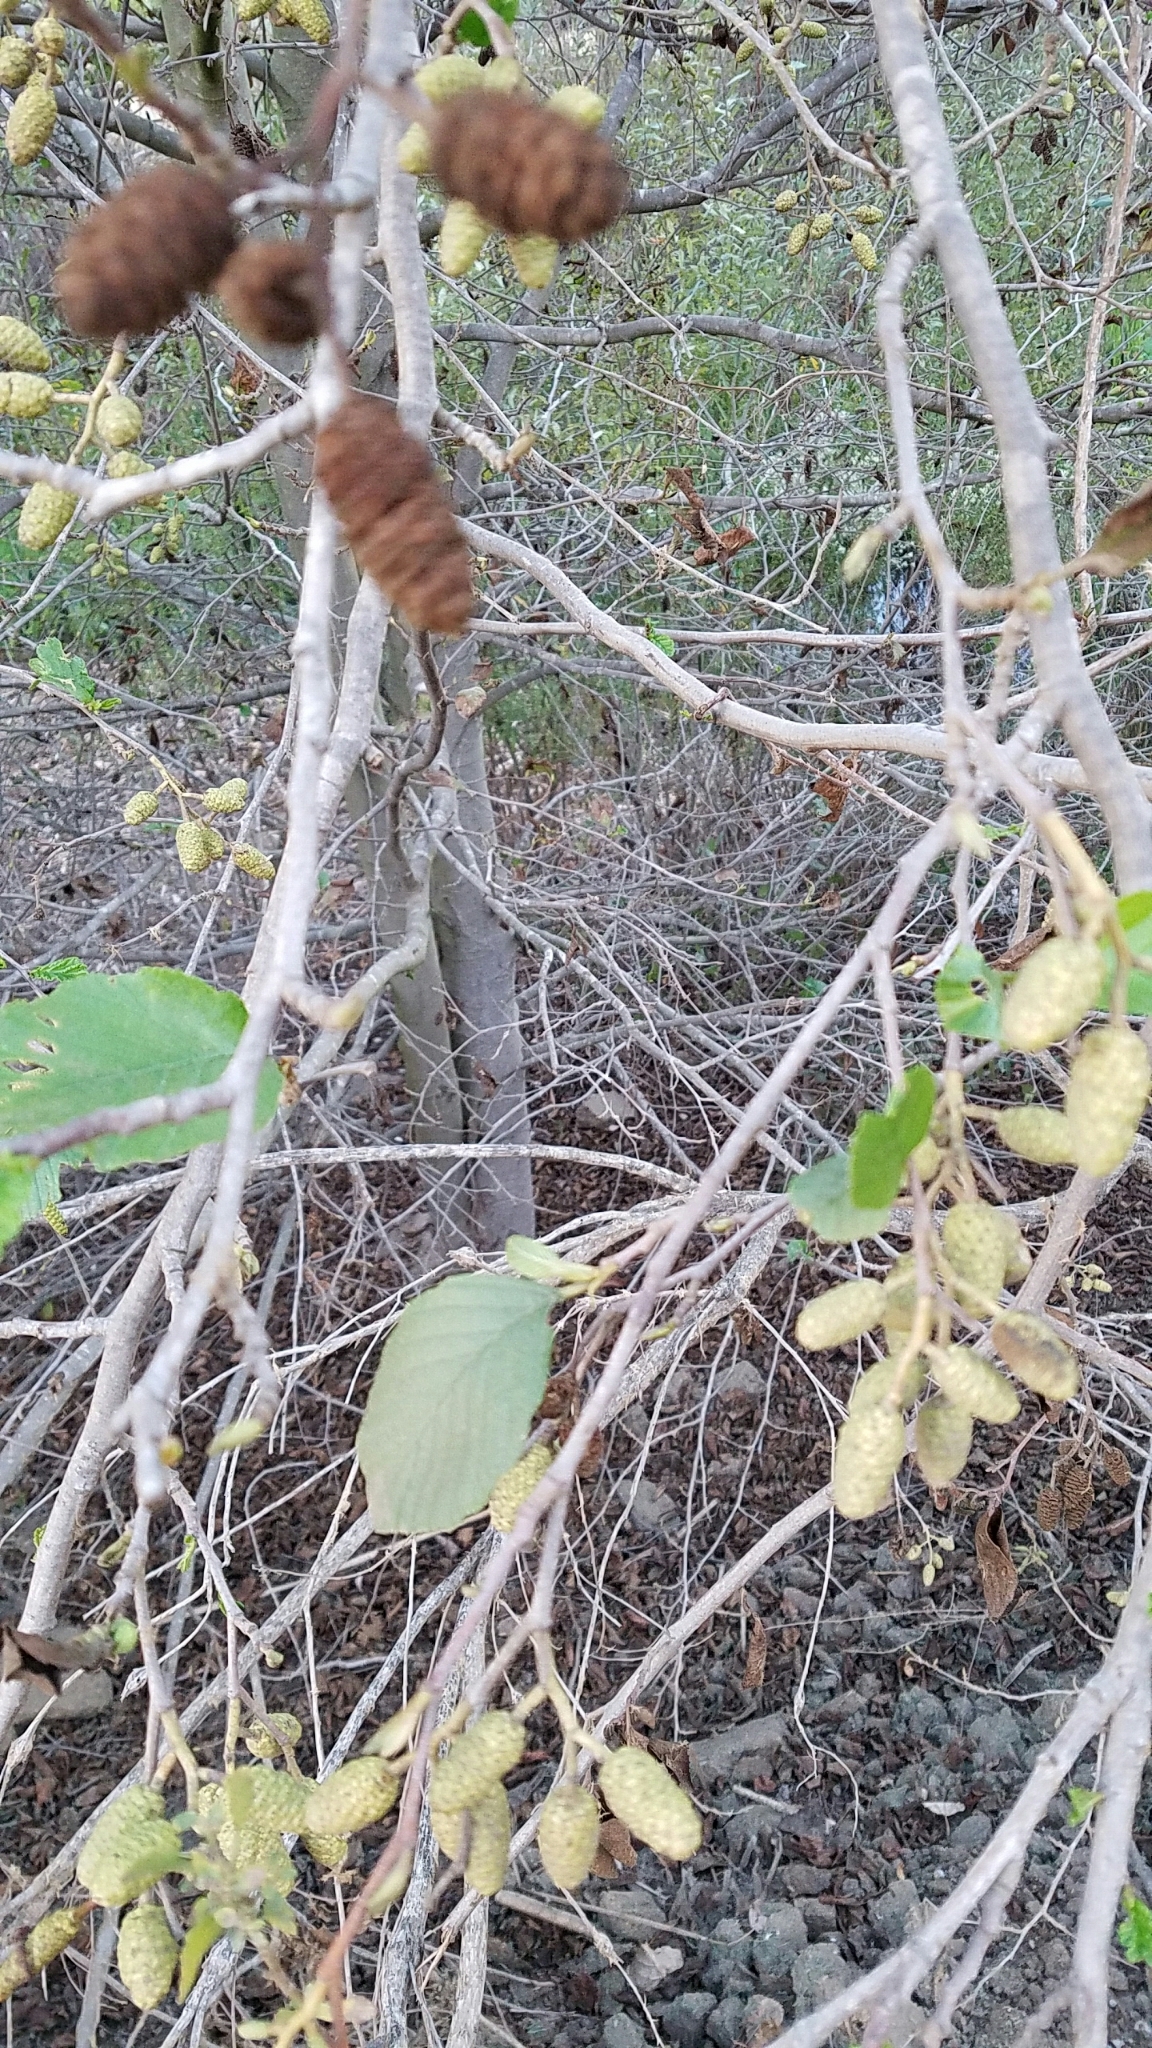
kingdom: Plantae
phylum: Tracheophyta
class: Magnoliopsida
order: Fagales
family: Betulaceae
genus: Alnus
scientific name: Alnus rhombifolia
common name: California alder
